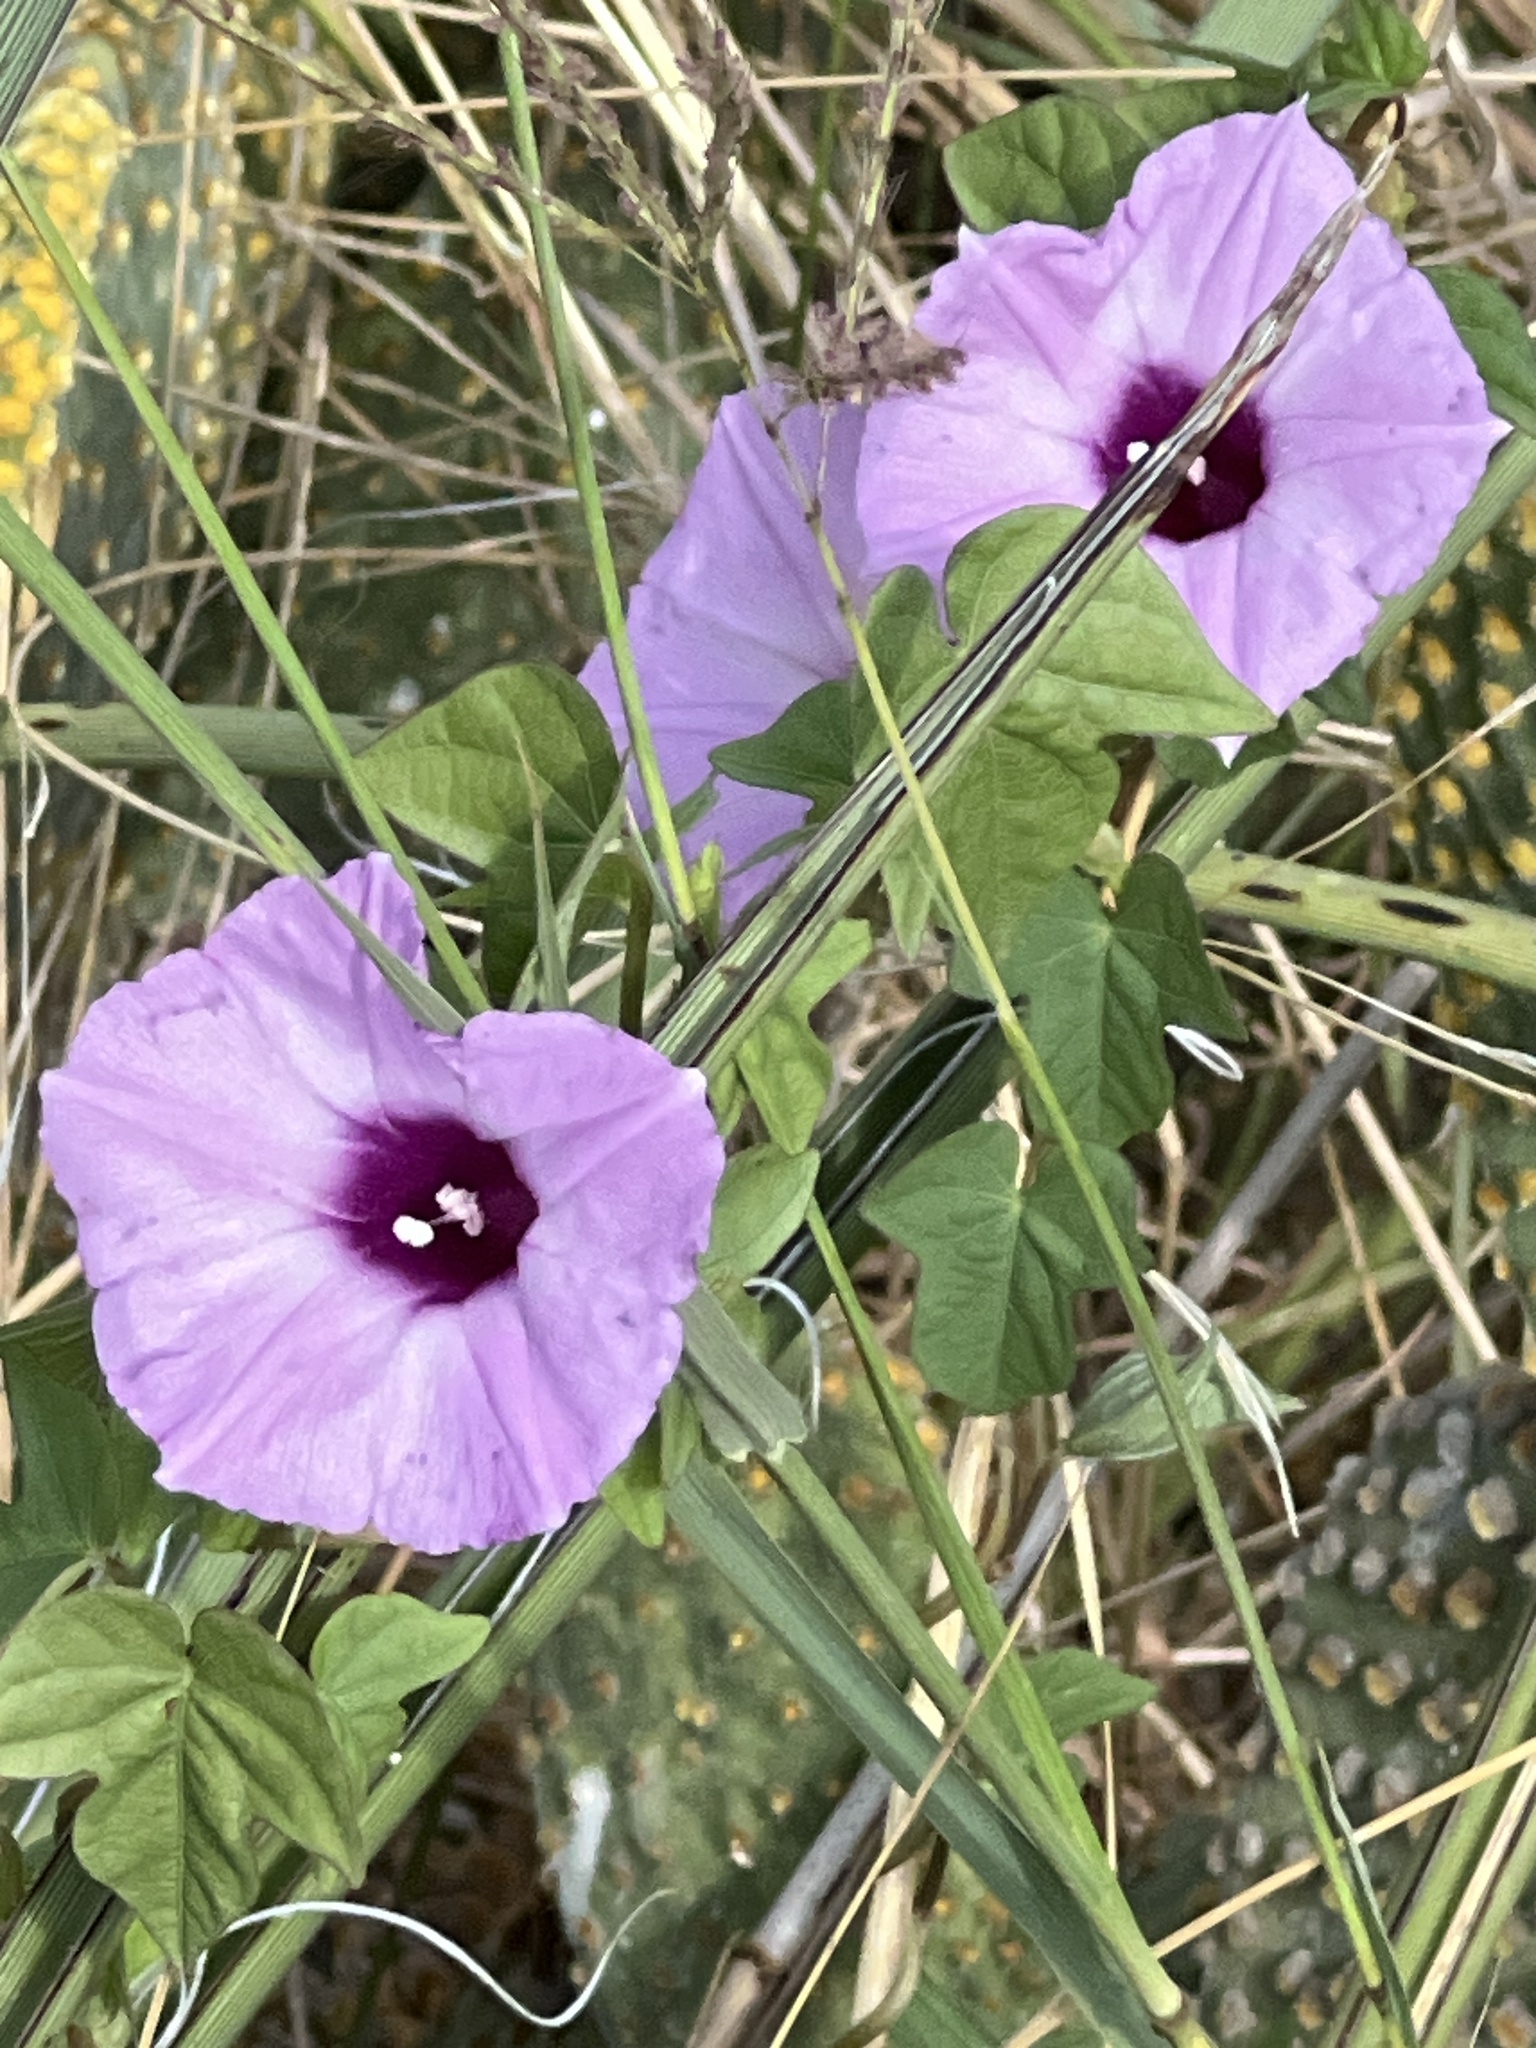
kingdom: Plantae
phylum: Tracheophyta
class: Magnoliopsida
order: Solanales
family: Convolvulaceae
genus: Ipomoea
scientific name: Ipomoea cordatotriloba
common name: Cotton morning glory
